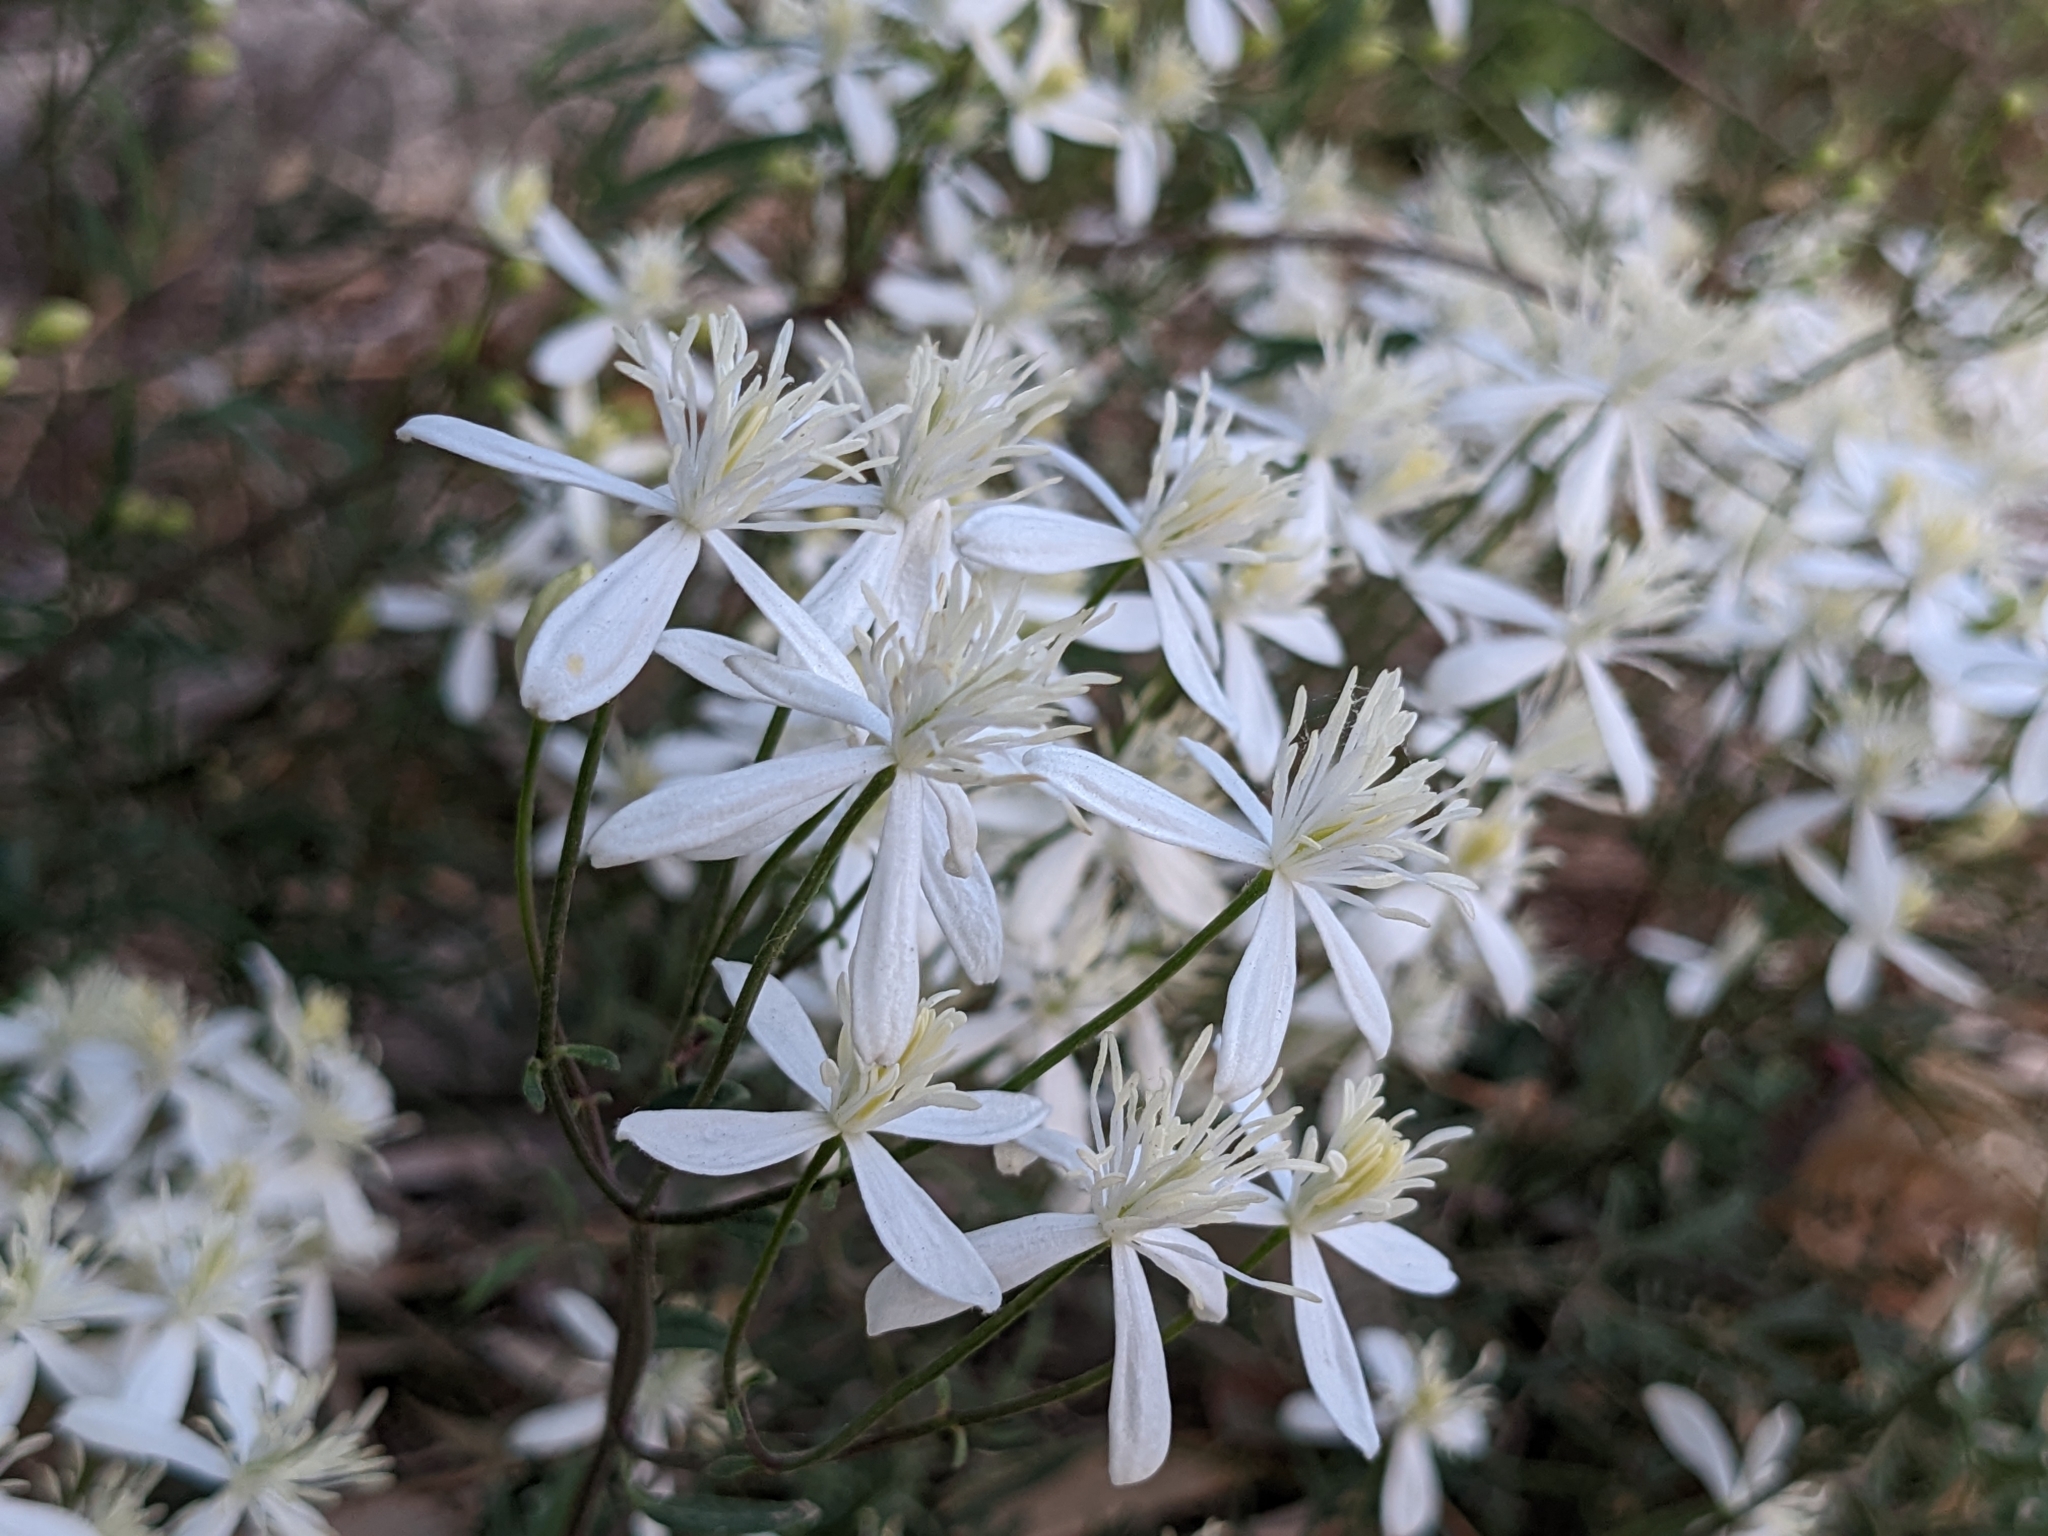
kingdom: Plantae
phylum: Tracheophyta
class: Magnoliopsida
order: Ranunculales
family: Ranunculaceae
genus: Clematis
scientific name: Clematis flammula
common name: Virgin's-bower
